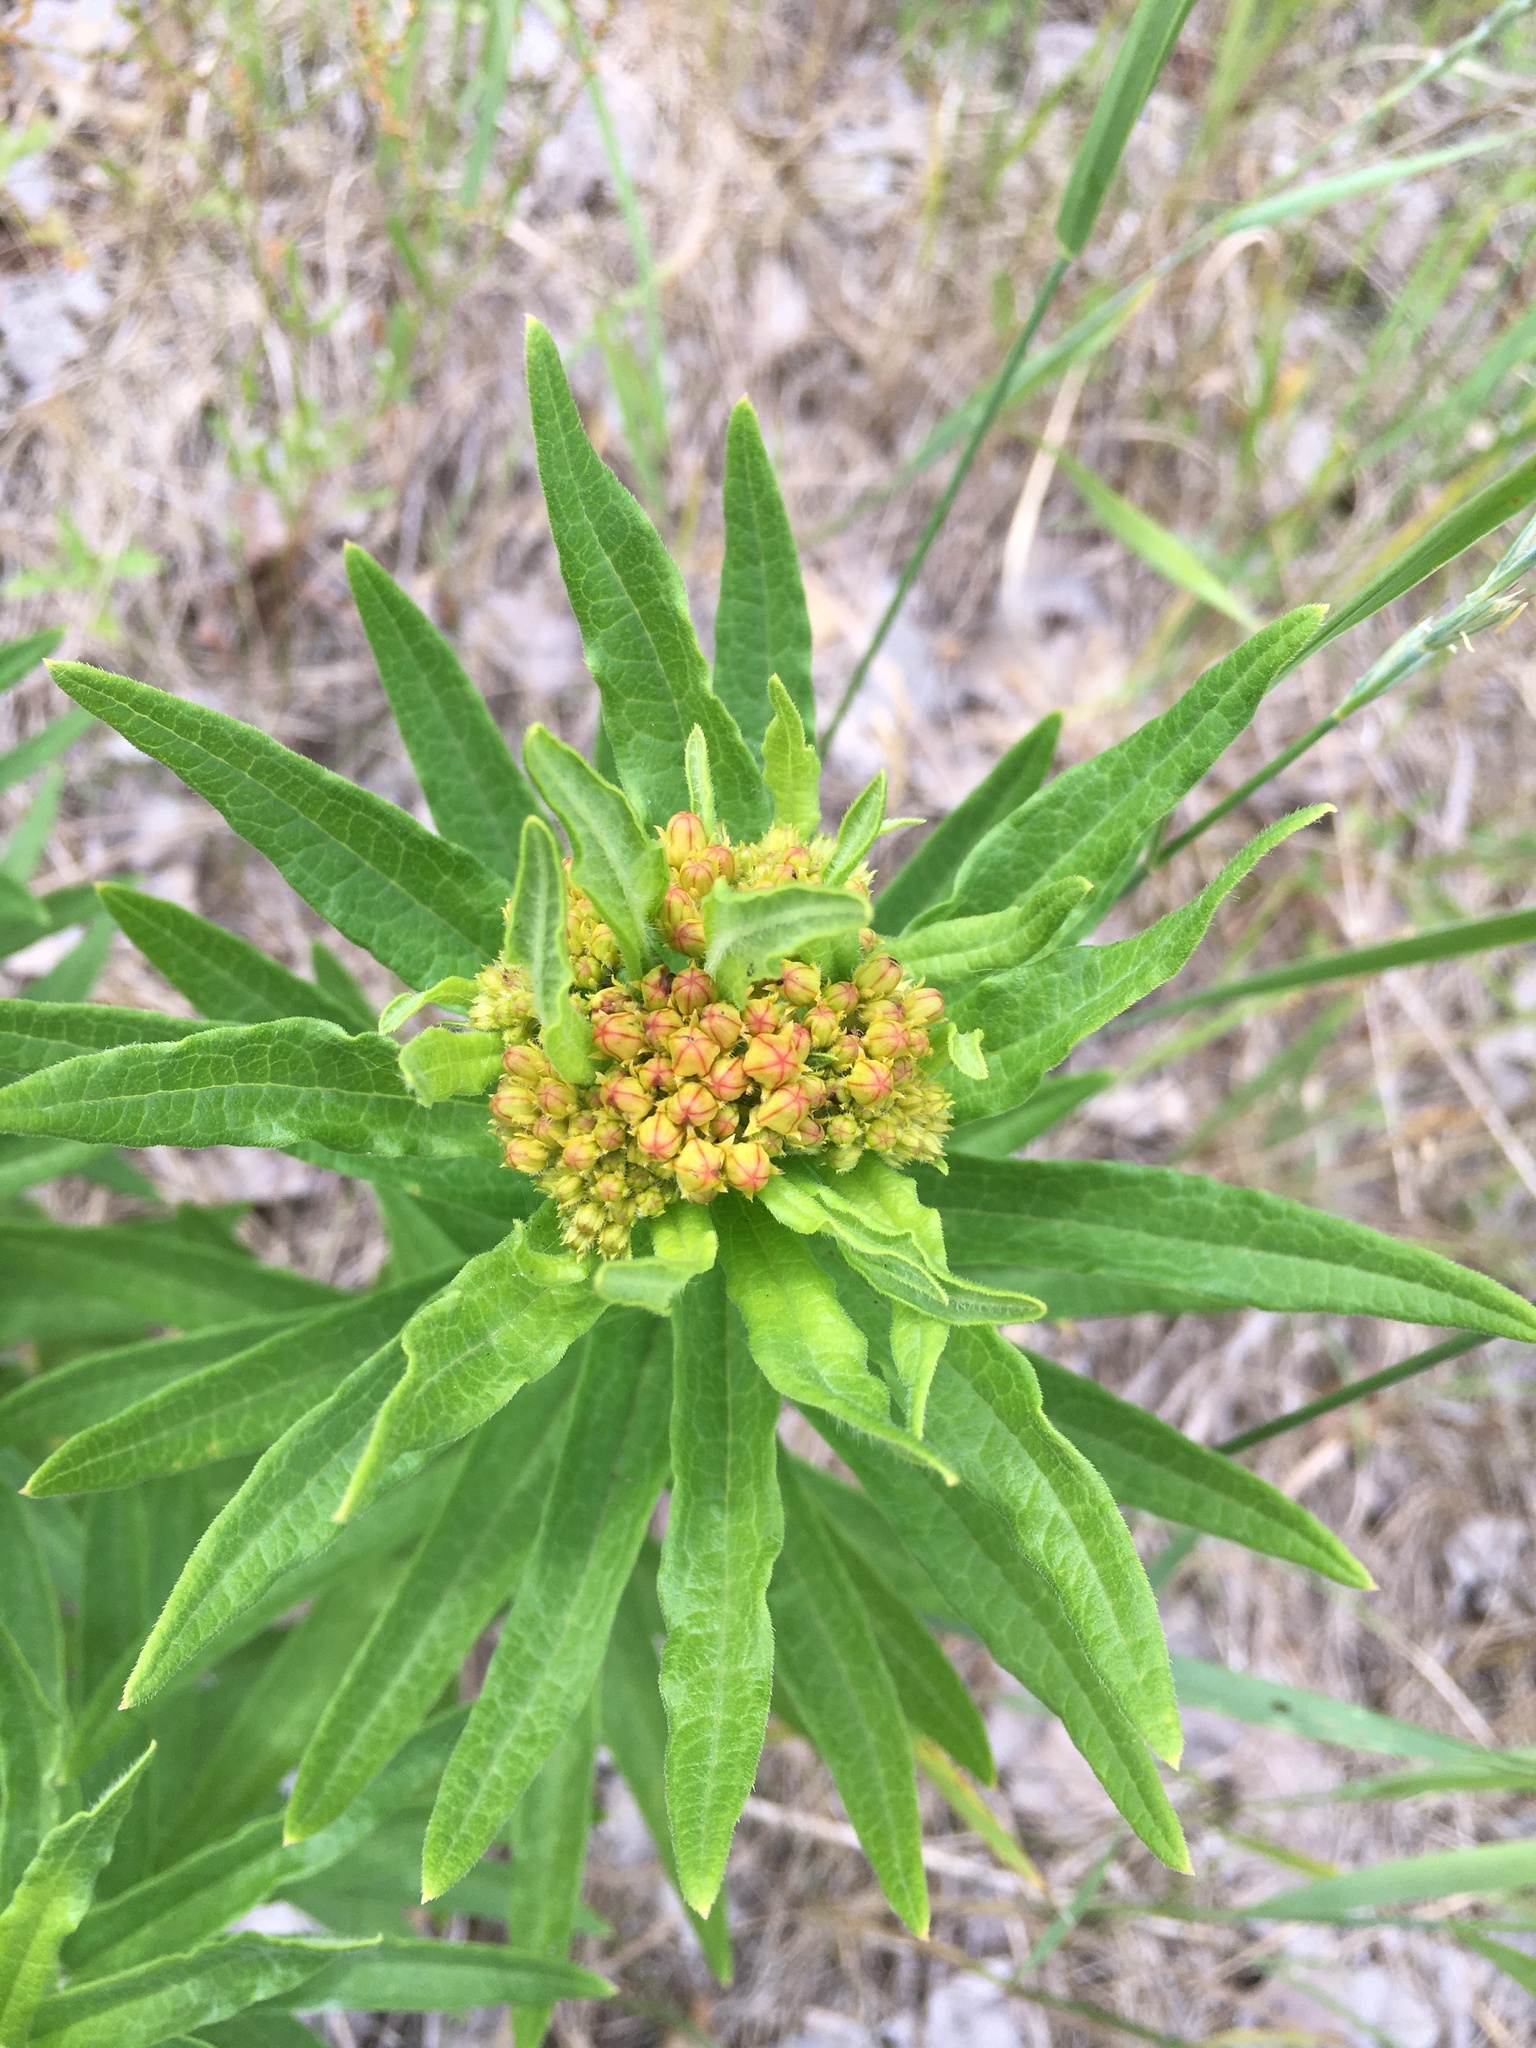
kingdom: Plantae
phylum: Tracheophyta
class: Magnoliopsida
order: Gentianales
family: Apocynaceae
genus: Asclepias
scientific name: Asclepias tuberosa
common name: Butterfly milkweed
